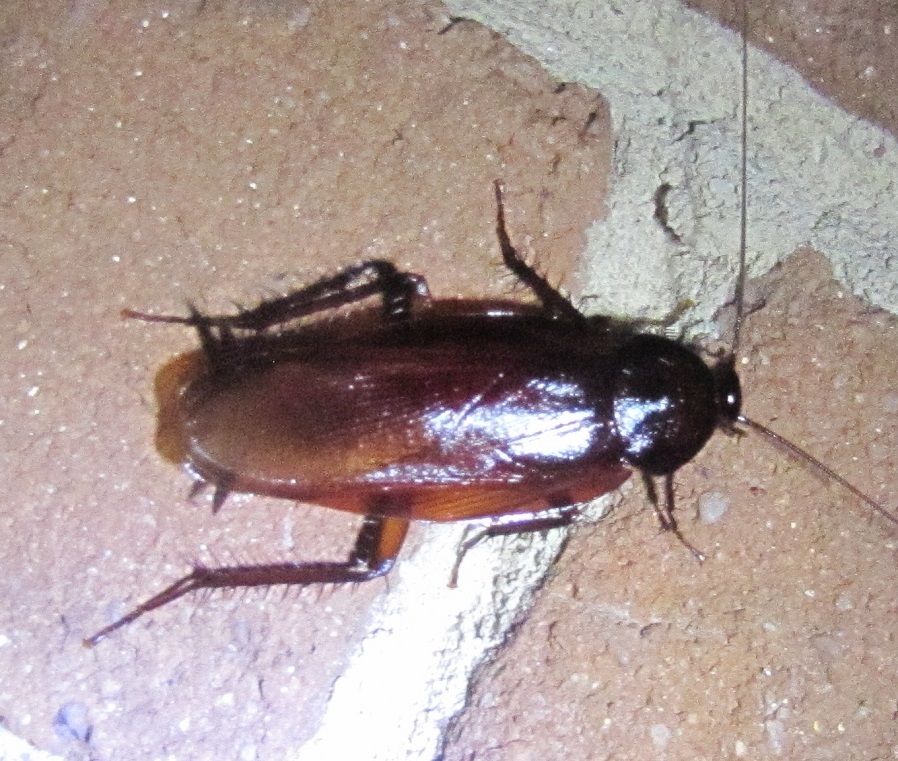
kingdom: Animalia
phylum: Arthropoda
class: Insecta
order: Blattodea
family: Blattidae
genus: Periplaneta
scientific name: Periplaneta fuliginosa
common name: Smokeybrown cockroad
